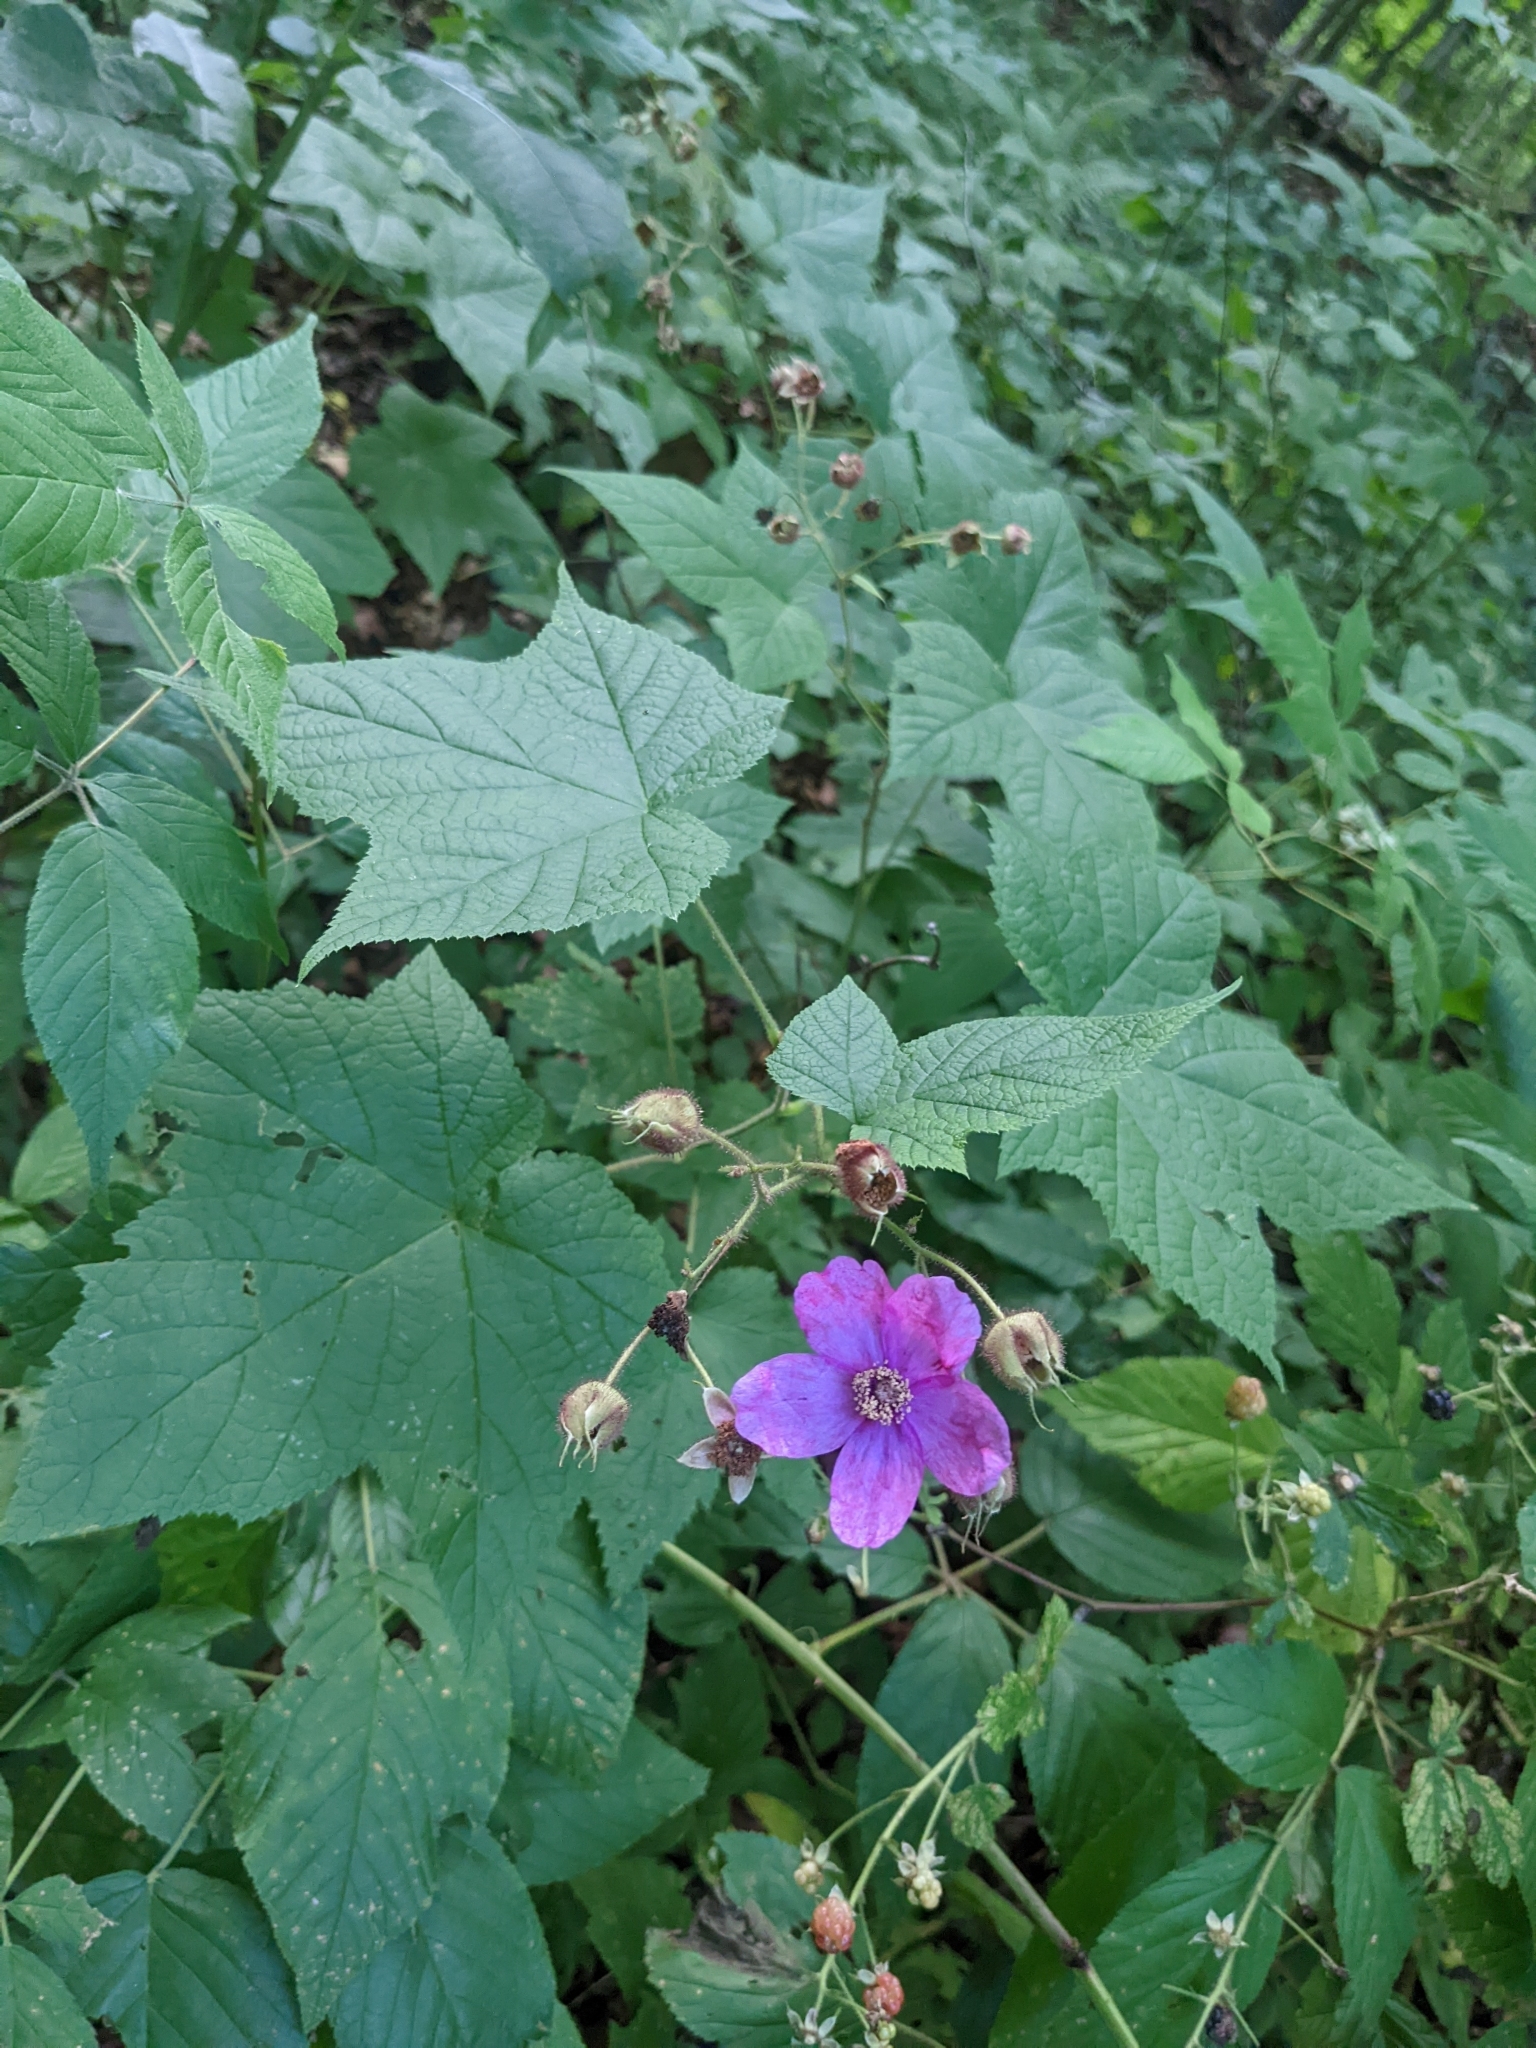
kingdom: Plantae
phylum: Tracheophyta
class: Magnoliopsida
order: Rosales
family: Rosaceae
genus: Rubus
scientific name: Rubus odoratus
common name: Purple-flowered raspberry
